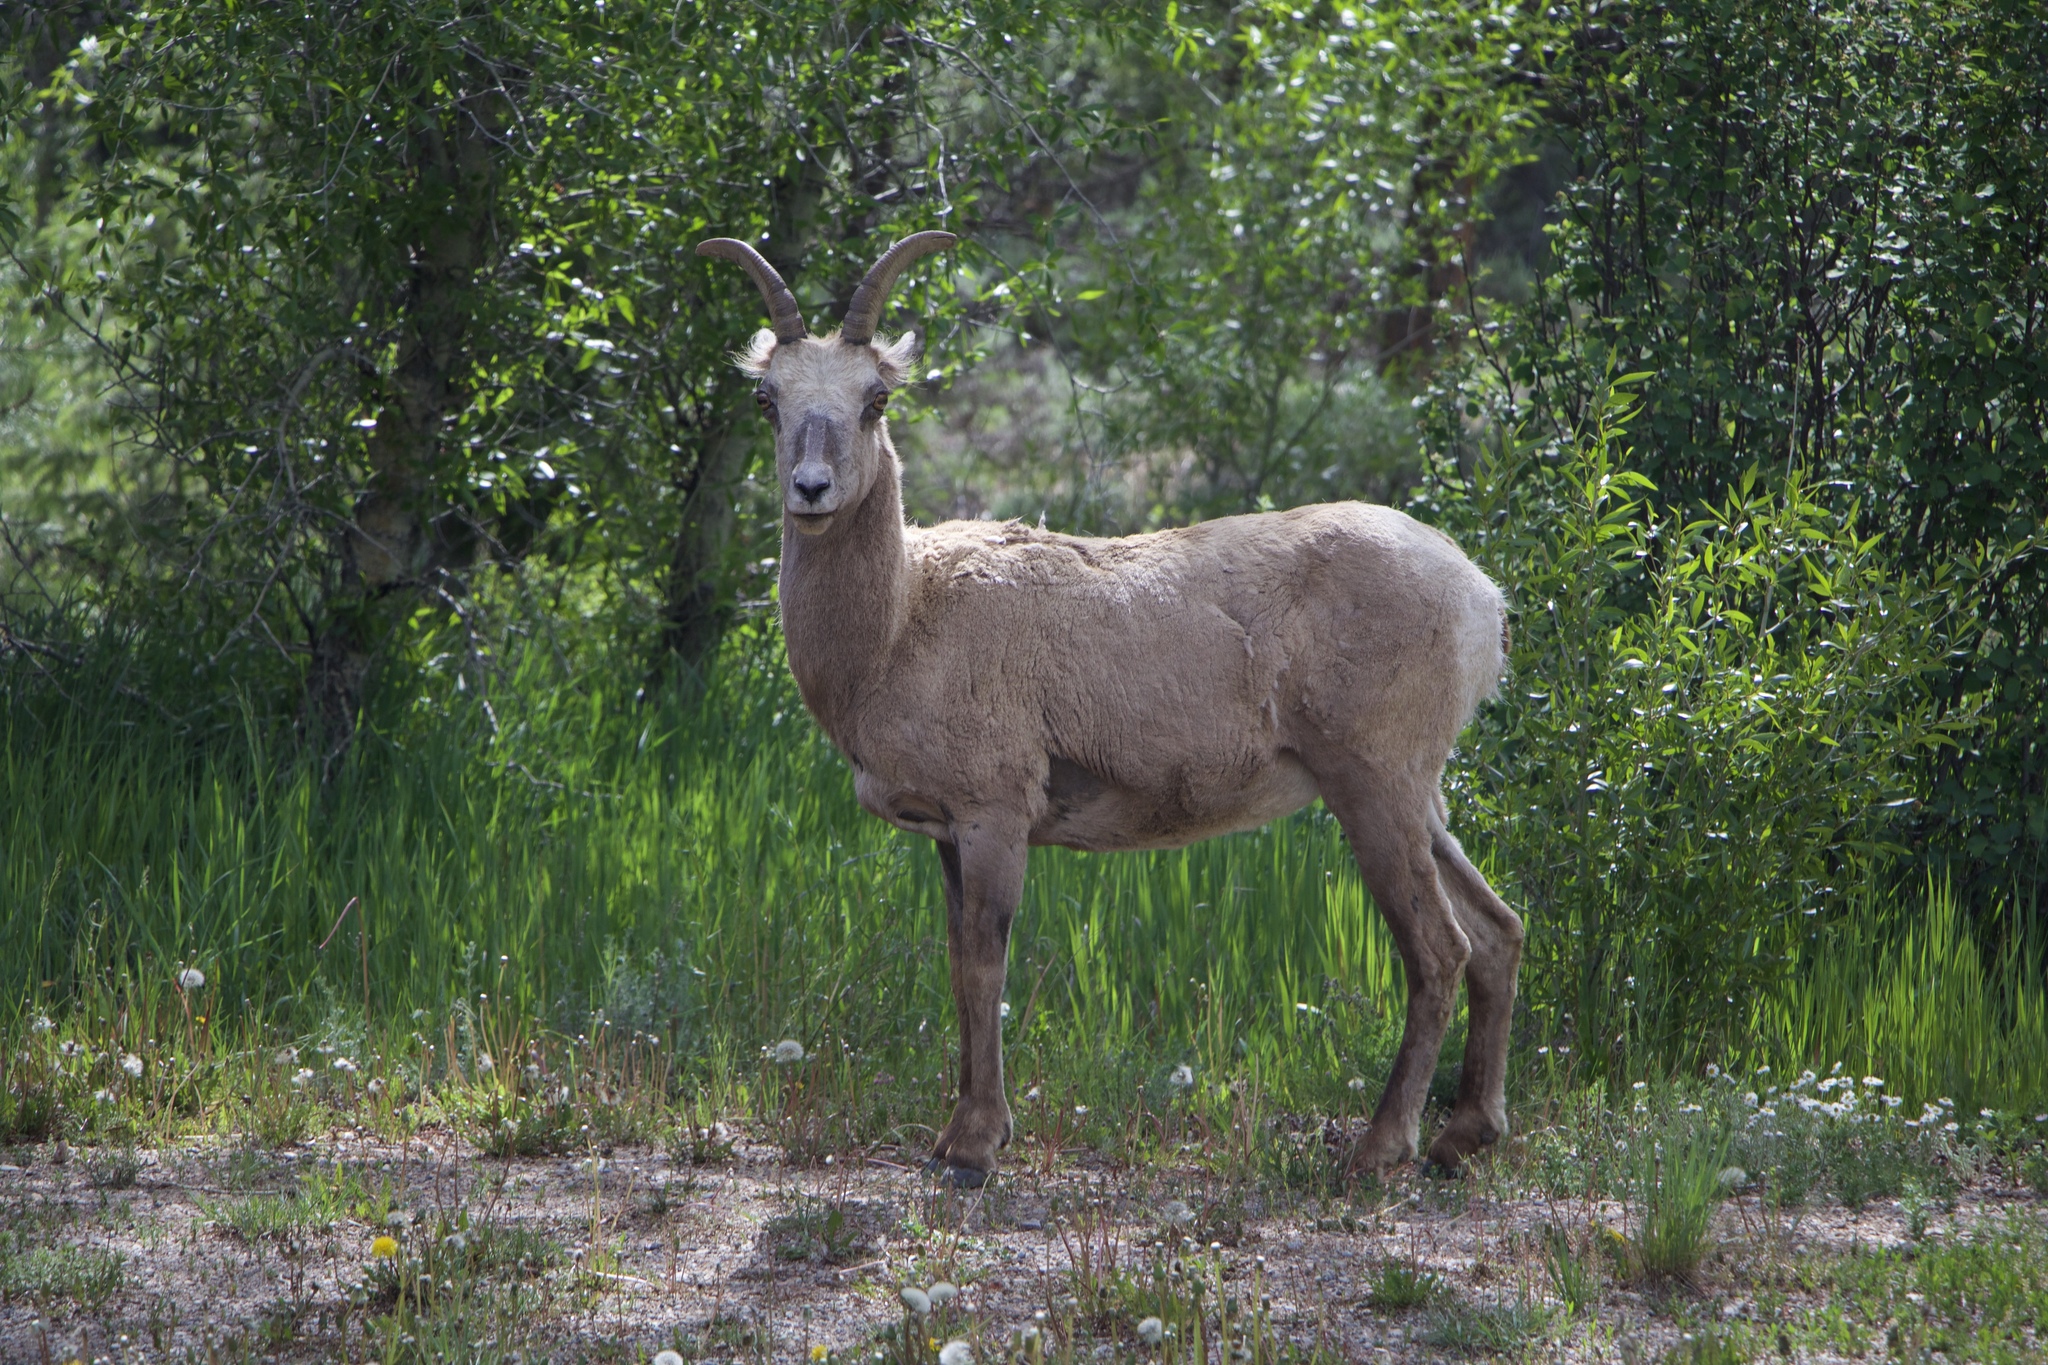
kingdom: Animalia
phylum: Chordata
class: Mammalia
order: Artiodactyla
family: Bovidae
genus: Ovis
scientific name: Ovis canadensis
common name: Bighorn sheep
